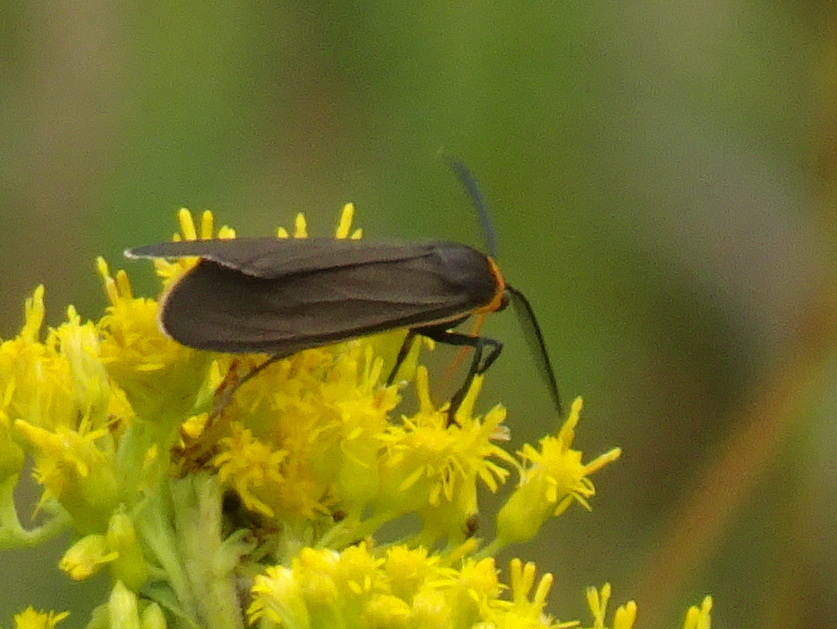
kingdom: Animalia
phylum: Arthropoda
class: Insecta
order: Lepidoptera
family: Erebidae
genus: Cisseps
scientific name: Cisseps fulvicollis
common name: Yellow-collared scape moth
